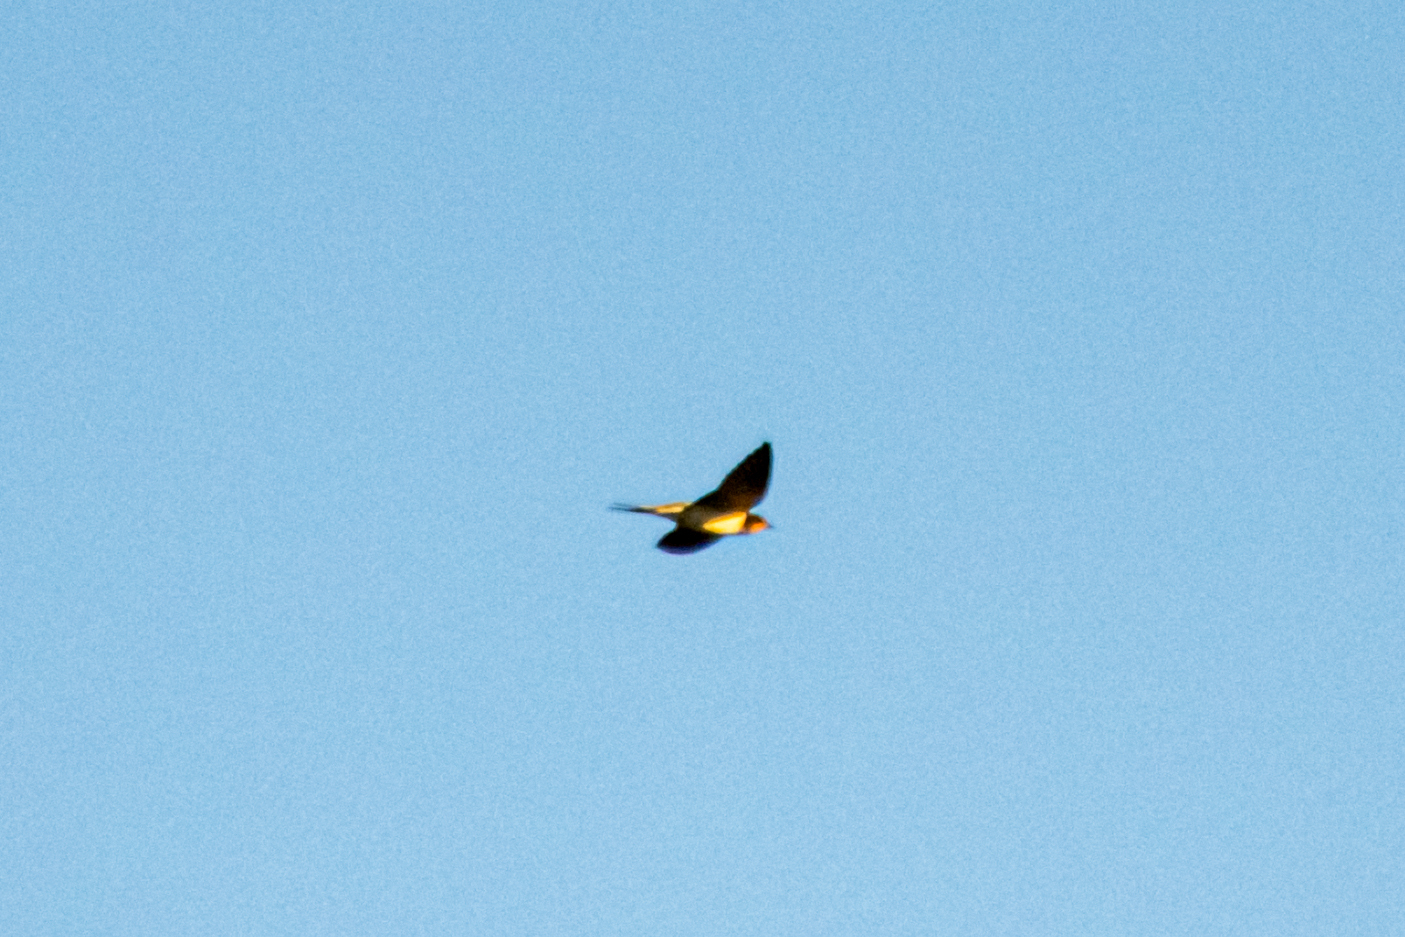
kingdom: Animalia
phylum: Chordata
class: Aves
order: Passeriformes
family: Hirundinidae
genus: Hirundo
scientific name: Hirundo rustica
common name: Barn swallow
